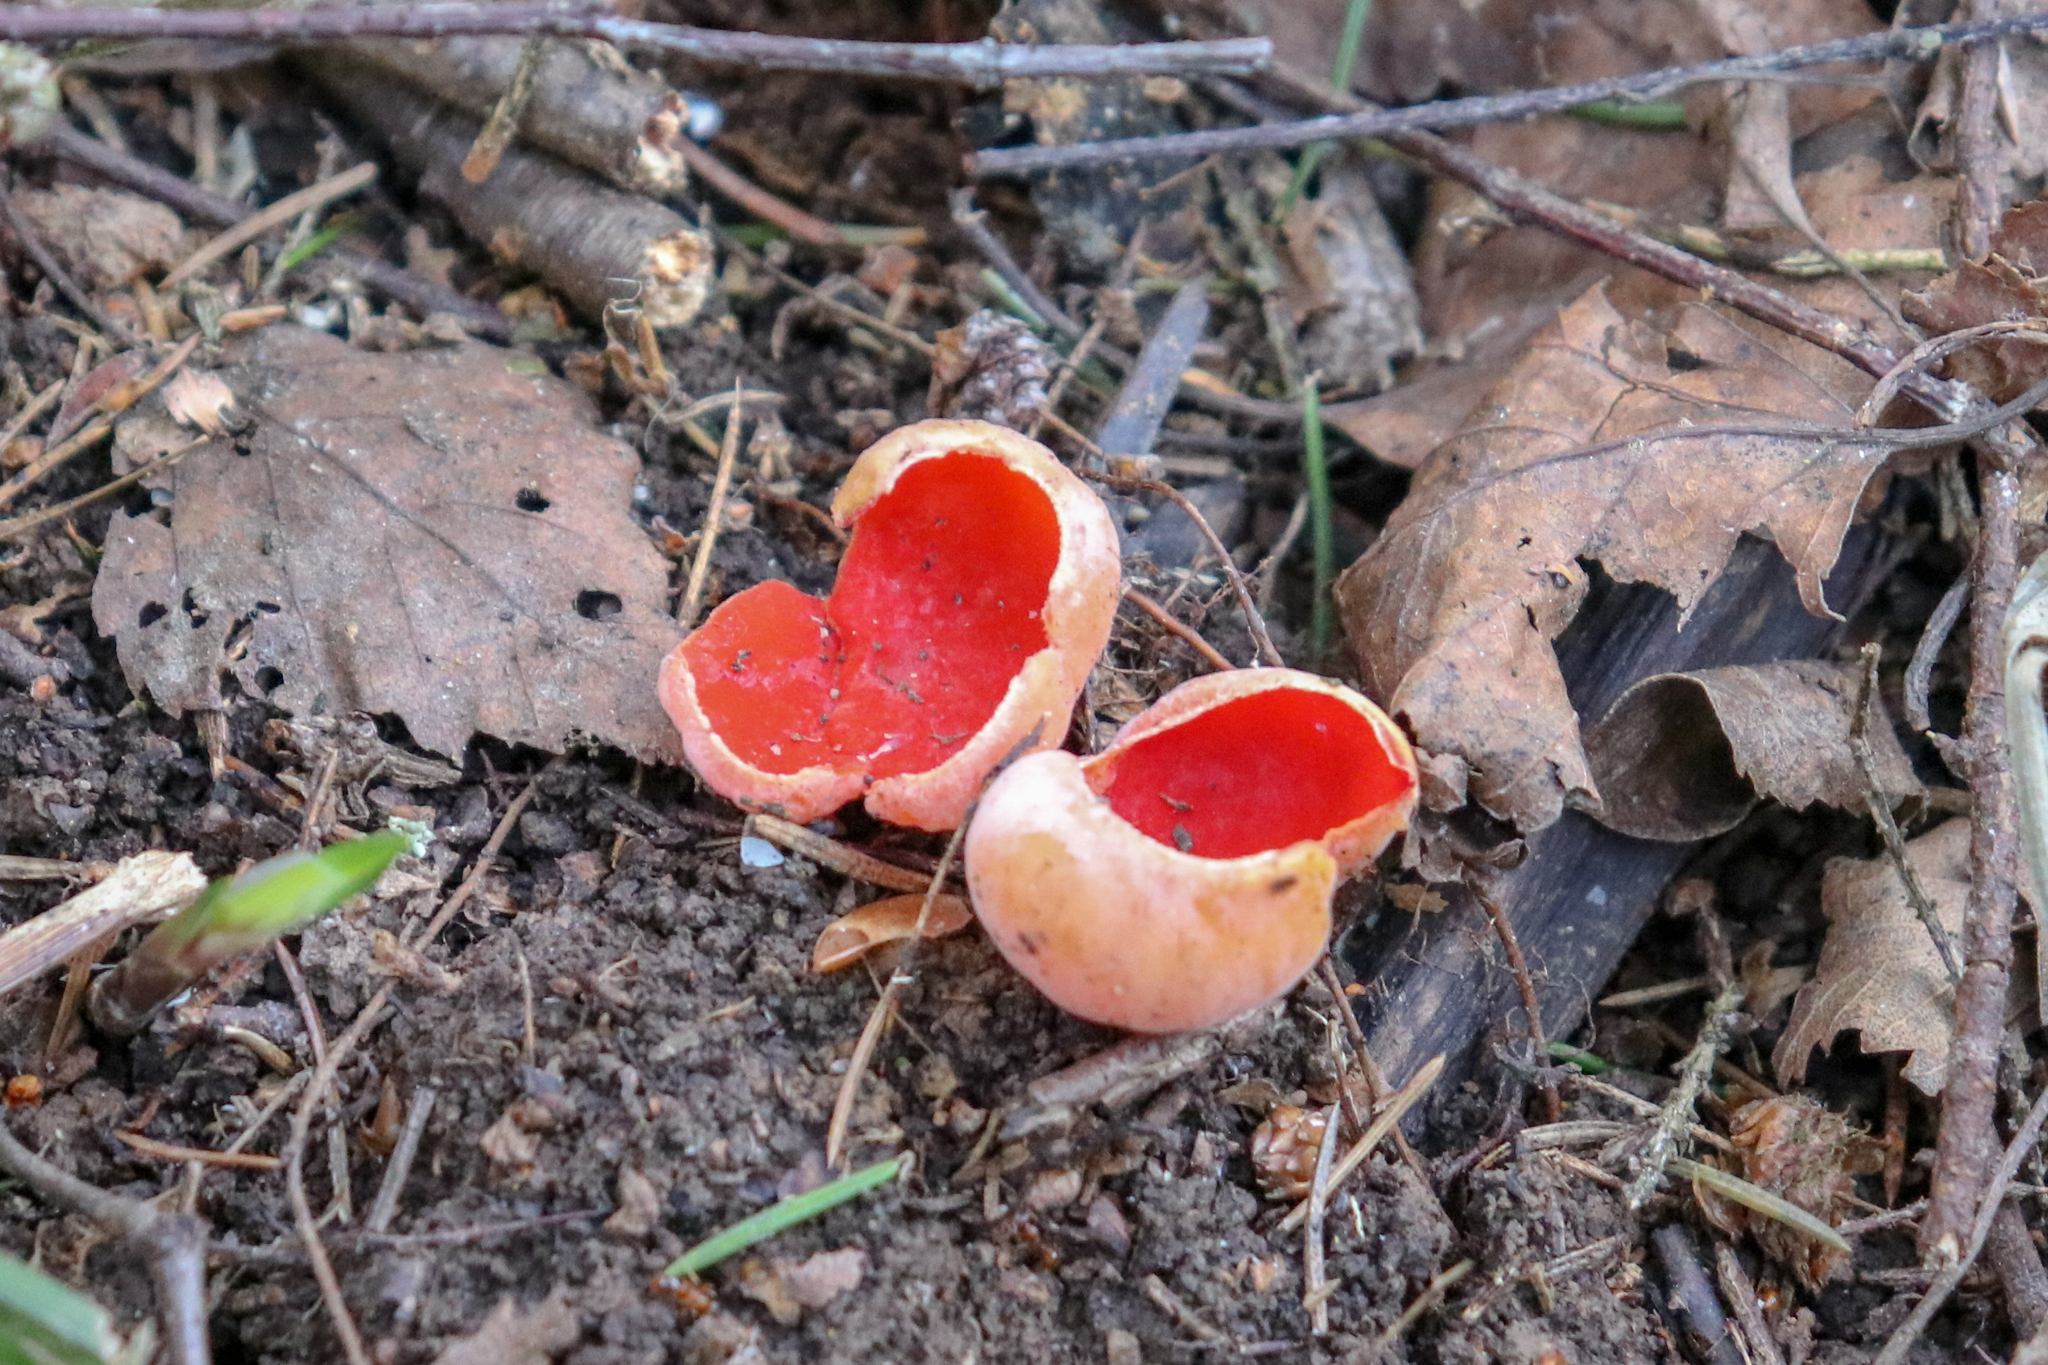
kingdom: Fungi
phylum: Ascomycota
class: Pezizomycetes
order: Pezizales
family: Sarcoscyphaceae
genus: Sarcoscypha
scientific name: Sarcoscypha austriaca
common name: Scarlet elfcup
